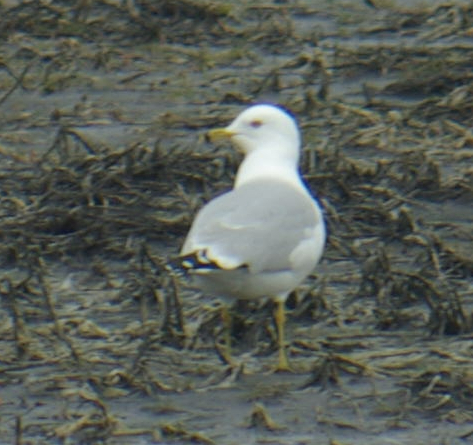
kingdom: Animalia
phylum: Chordata
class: Aves
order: Charadriiformes
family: Laridae
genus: Larus
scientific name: Larus delawarensis
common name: Ring-billed gull
